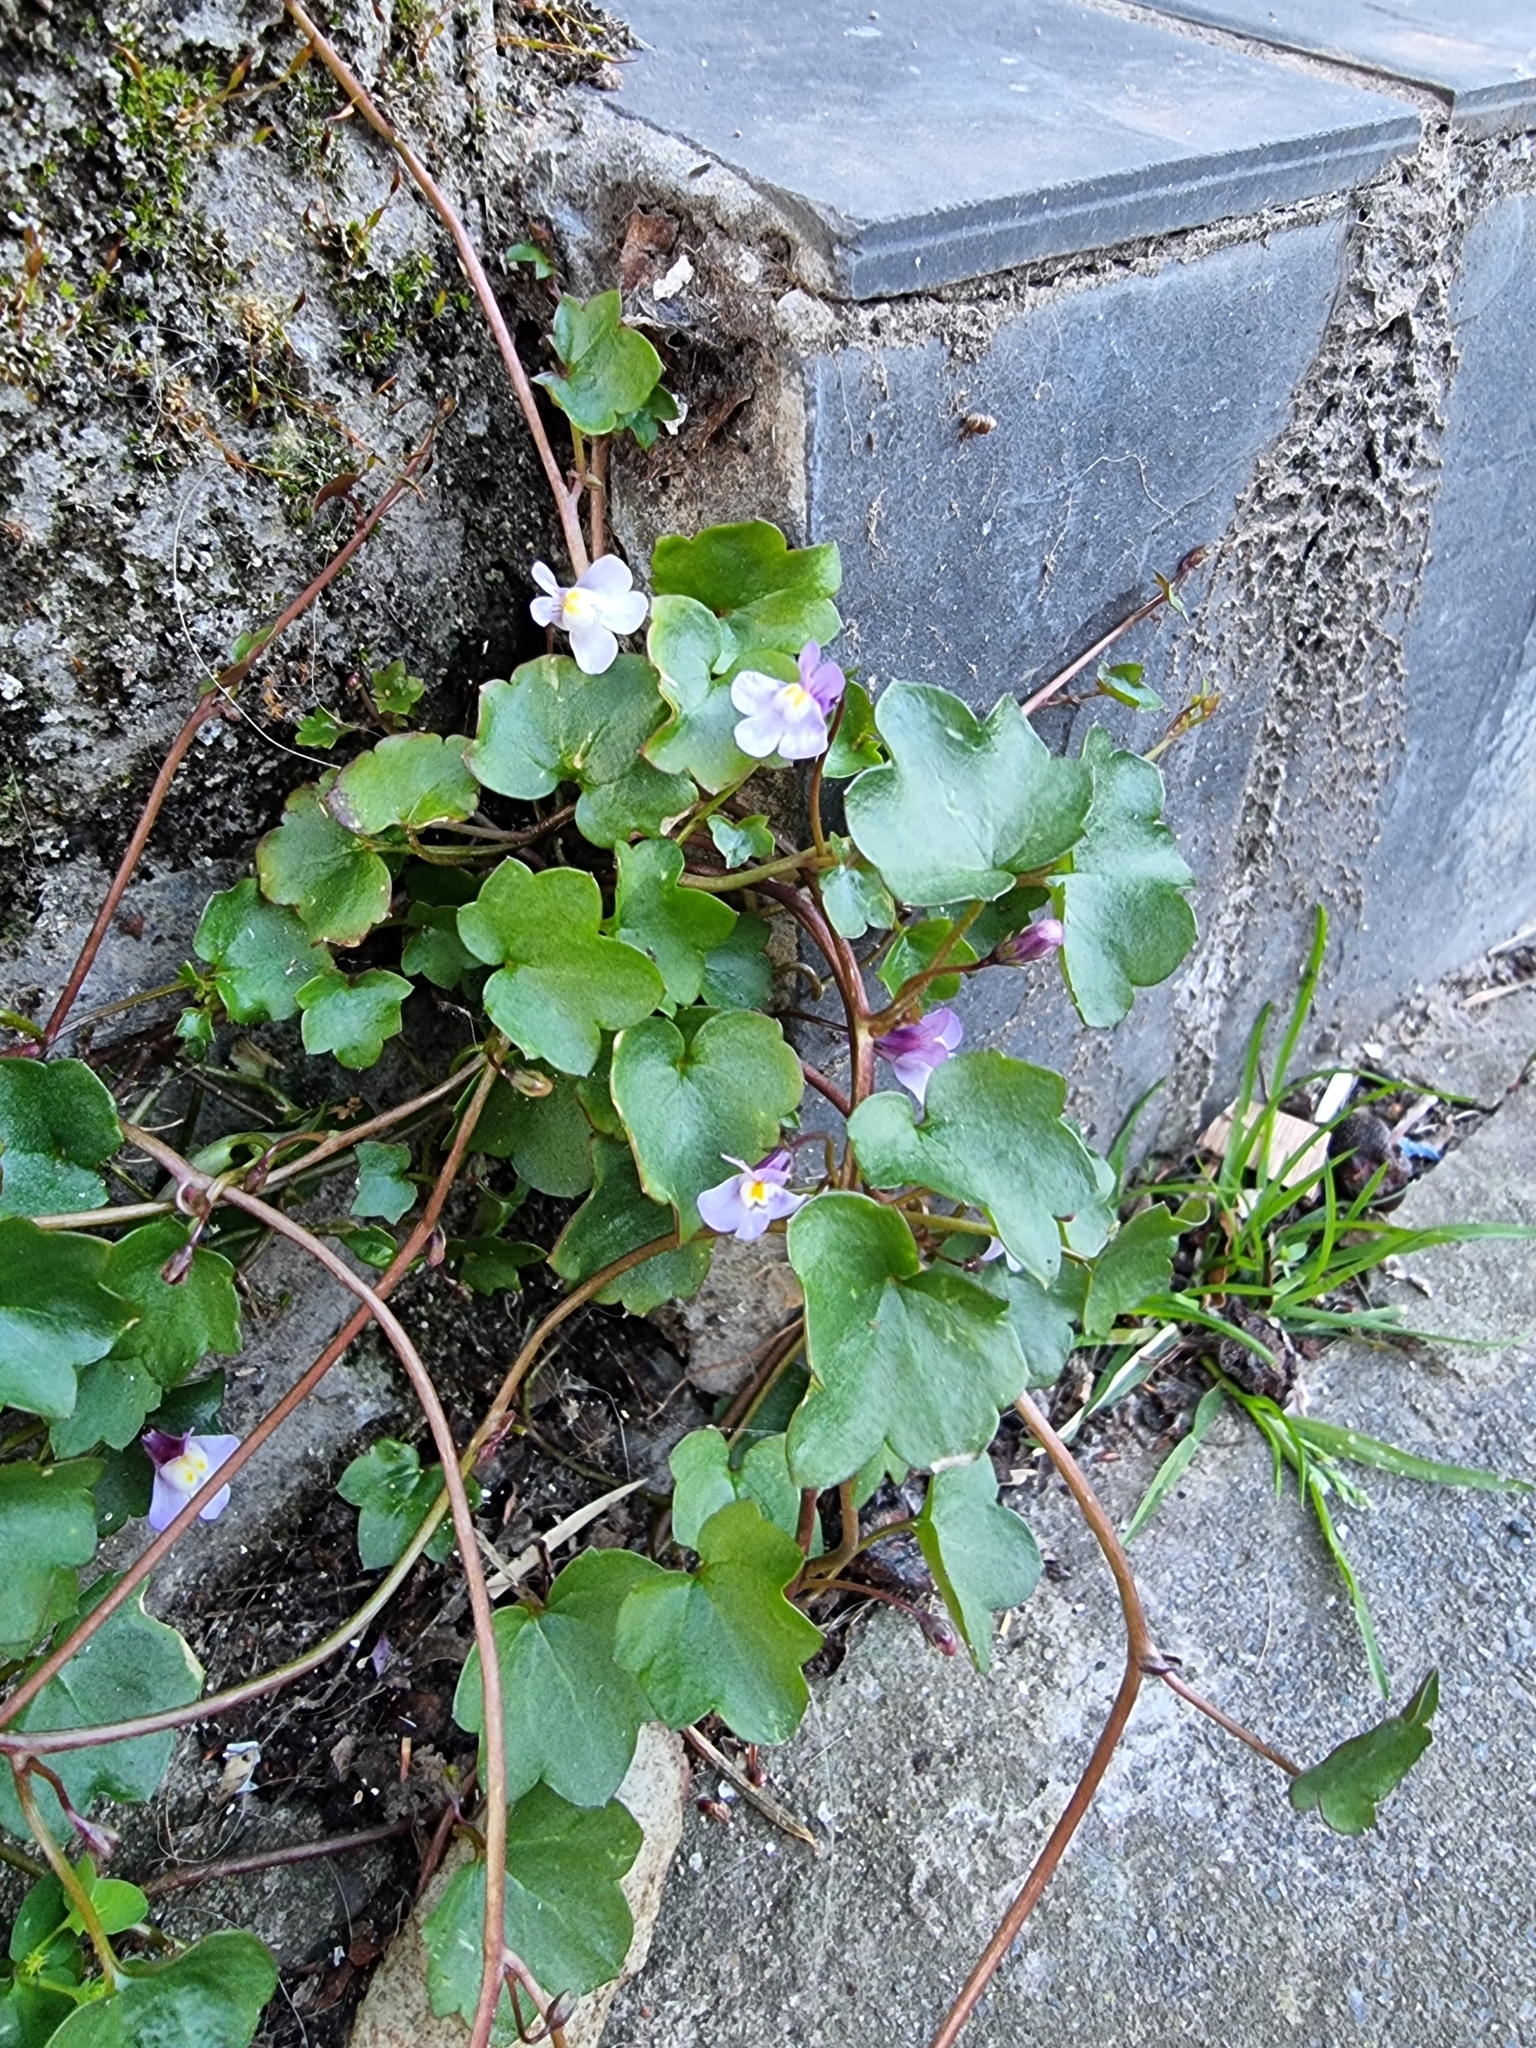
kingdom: Plantae
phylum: Tracheophyta
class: Magnoliopsida
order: Lamiales
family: Plantaginaceae
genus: Cymbalaria
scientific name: Cymbalaria muralis
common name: Ivy-leaved toadflax
